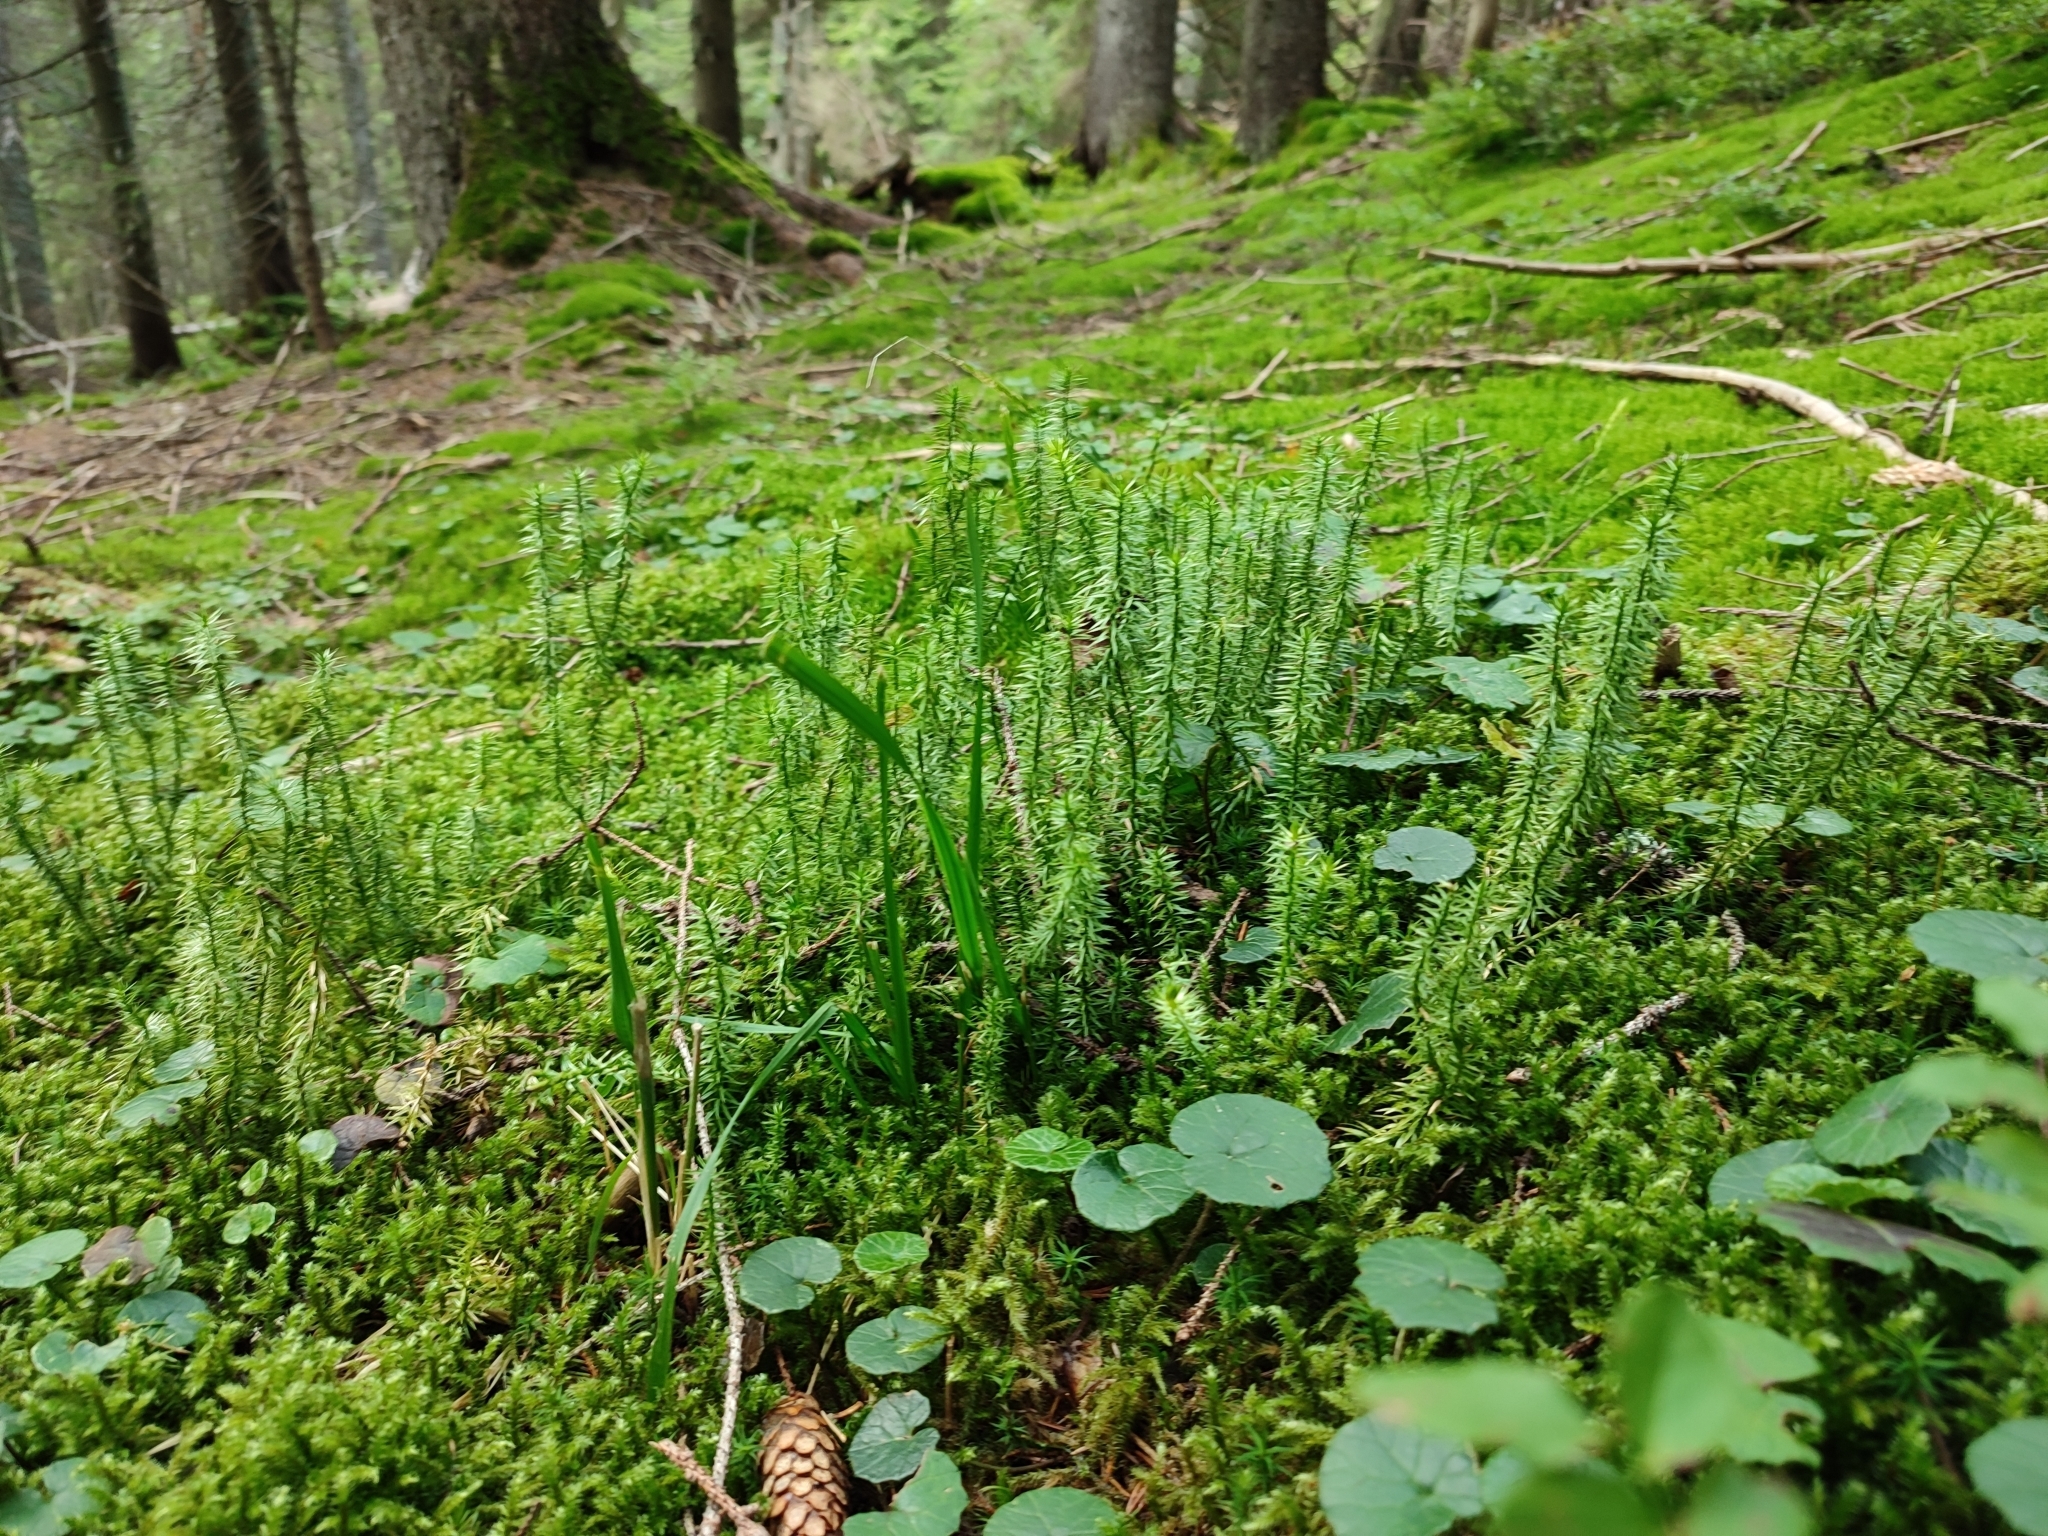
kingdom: Plantae
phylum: Tracheophyta
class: Lycopodiopsida
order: Lycopodiales
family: Lycopodiaceae
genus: Spinulum
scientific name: Spinulum annotinum
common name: Interrupted club-moss
